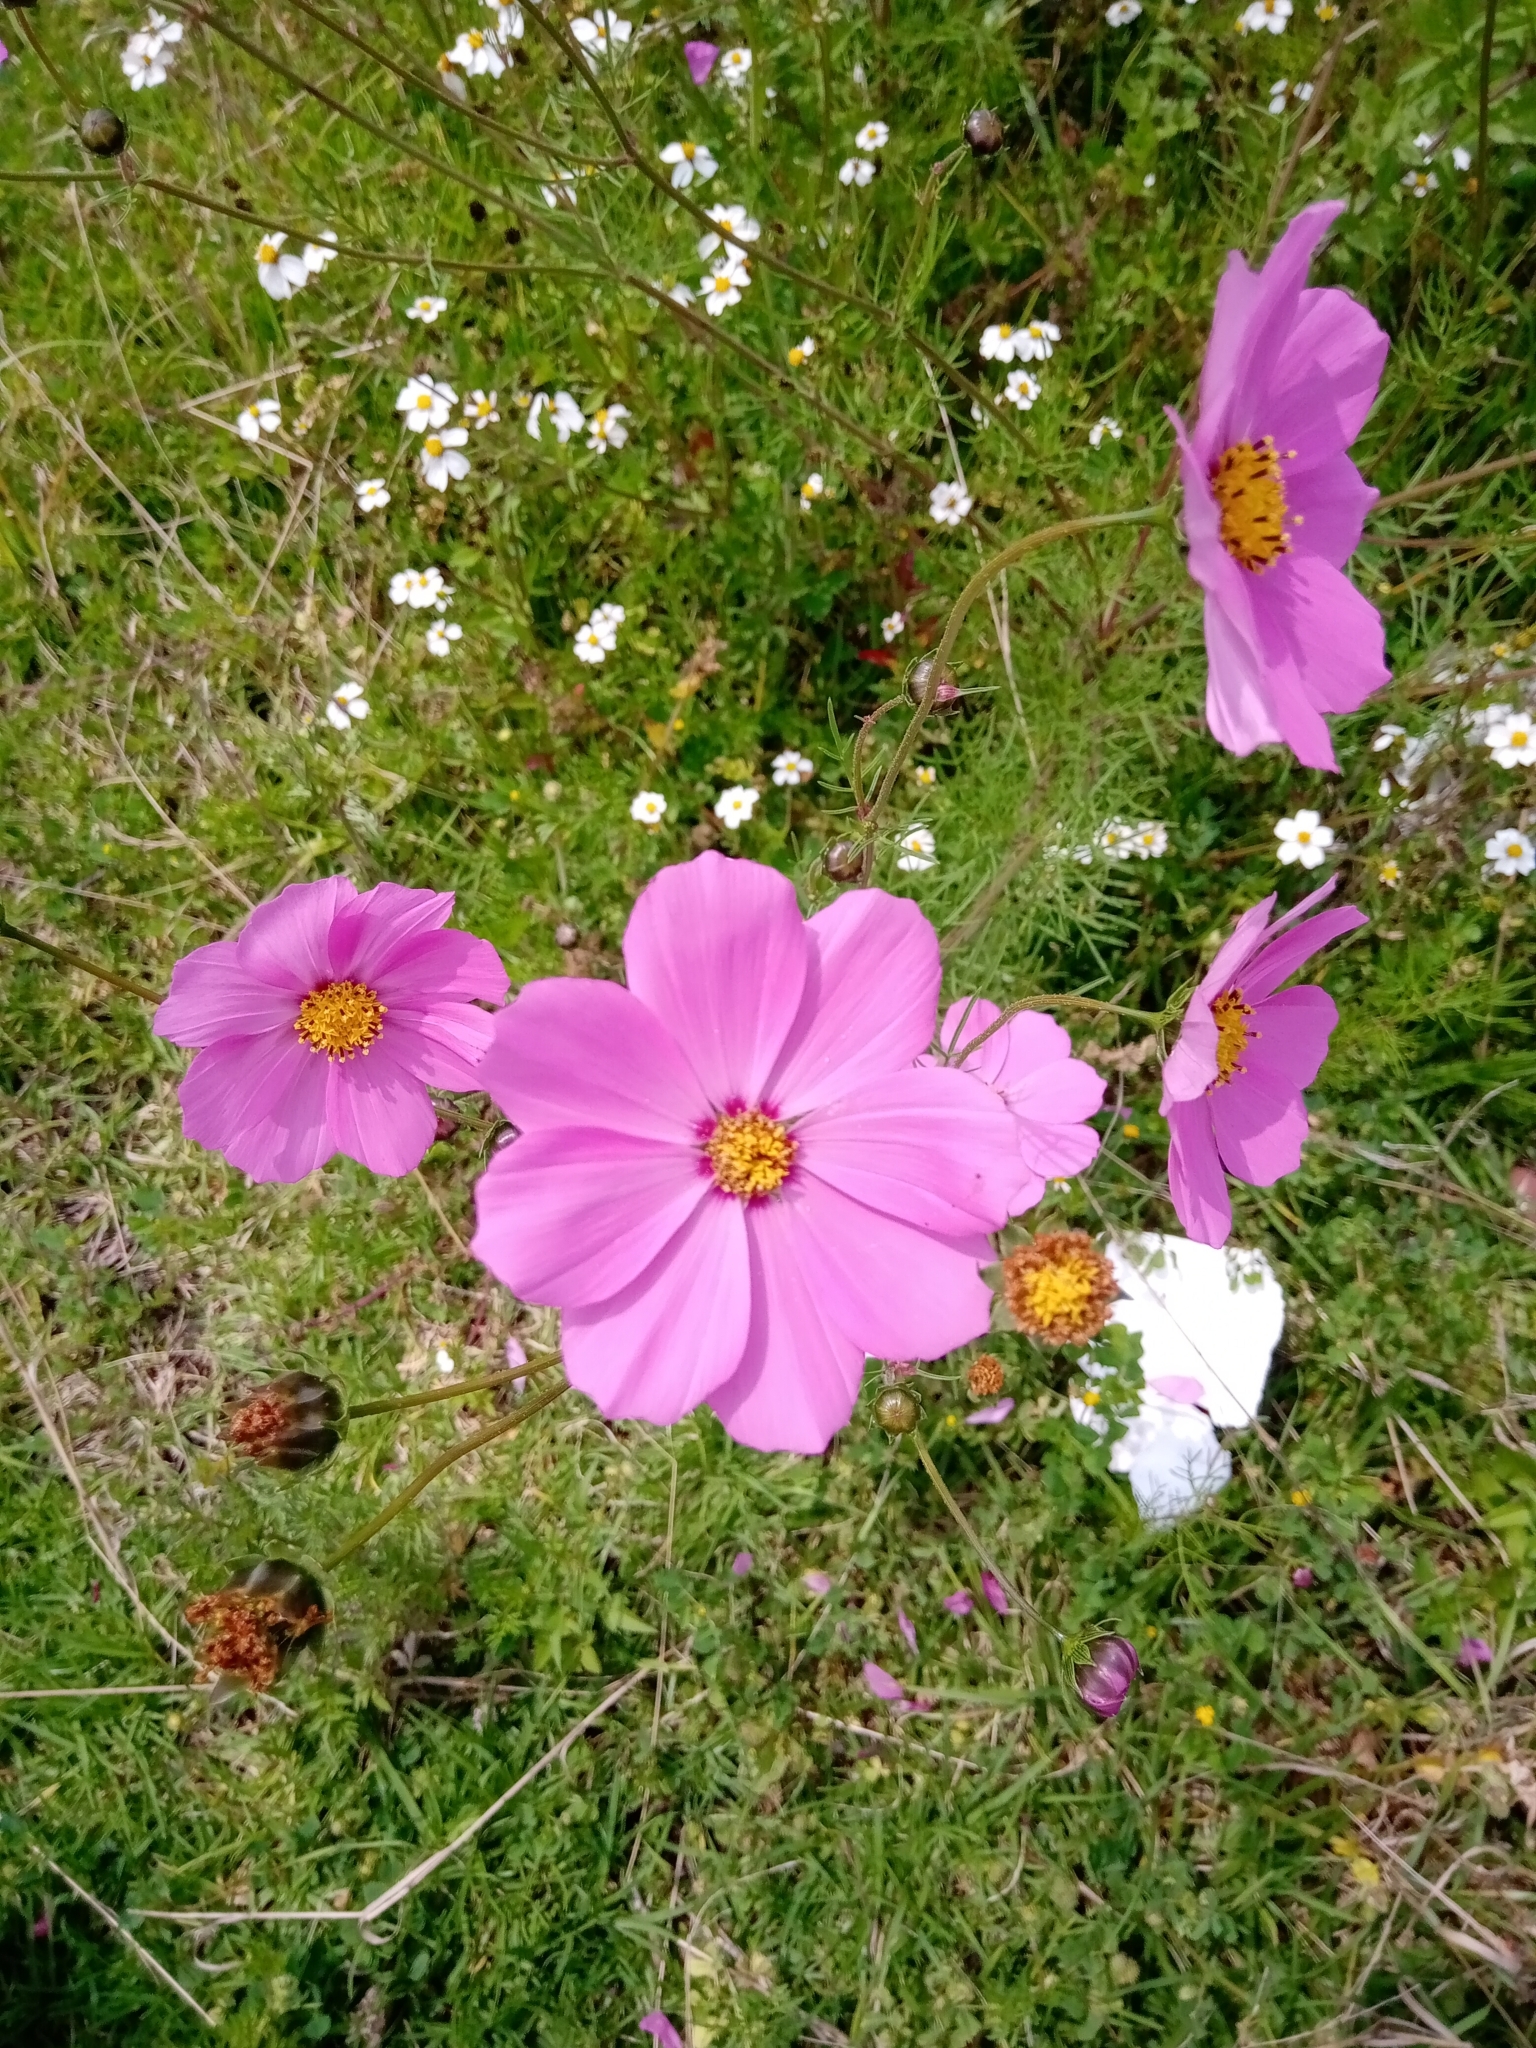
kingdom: Plantae
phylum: Tracheophyta
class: Magnoliopsida
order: Asterales
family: Asteraceae
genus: Cosmos
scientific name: Cosmos bipinnatus
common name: Garden cosmos
